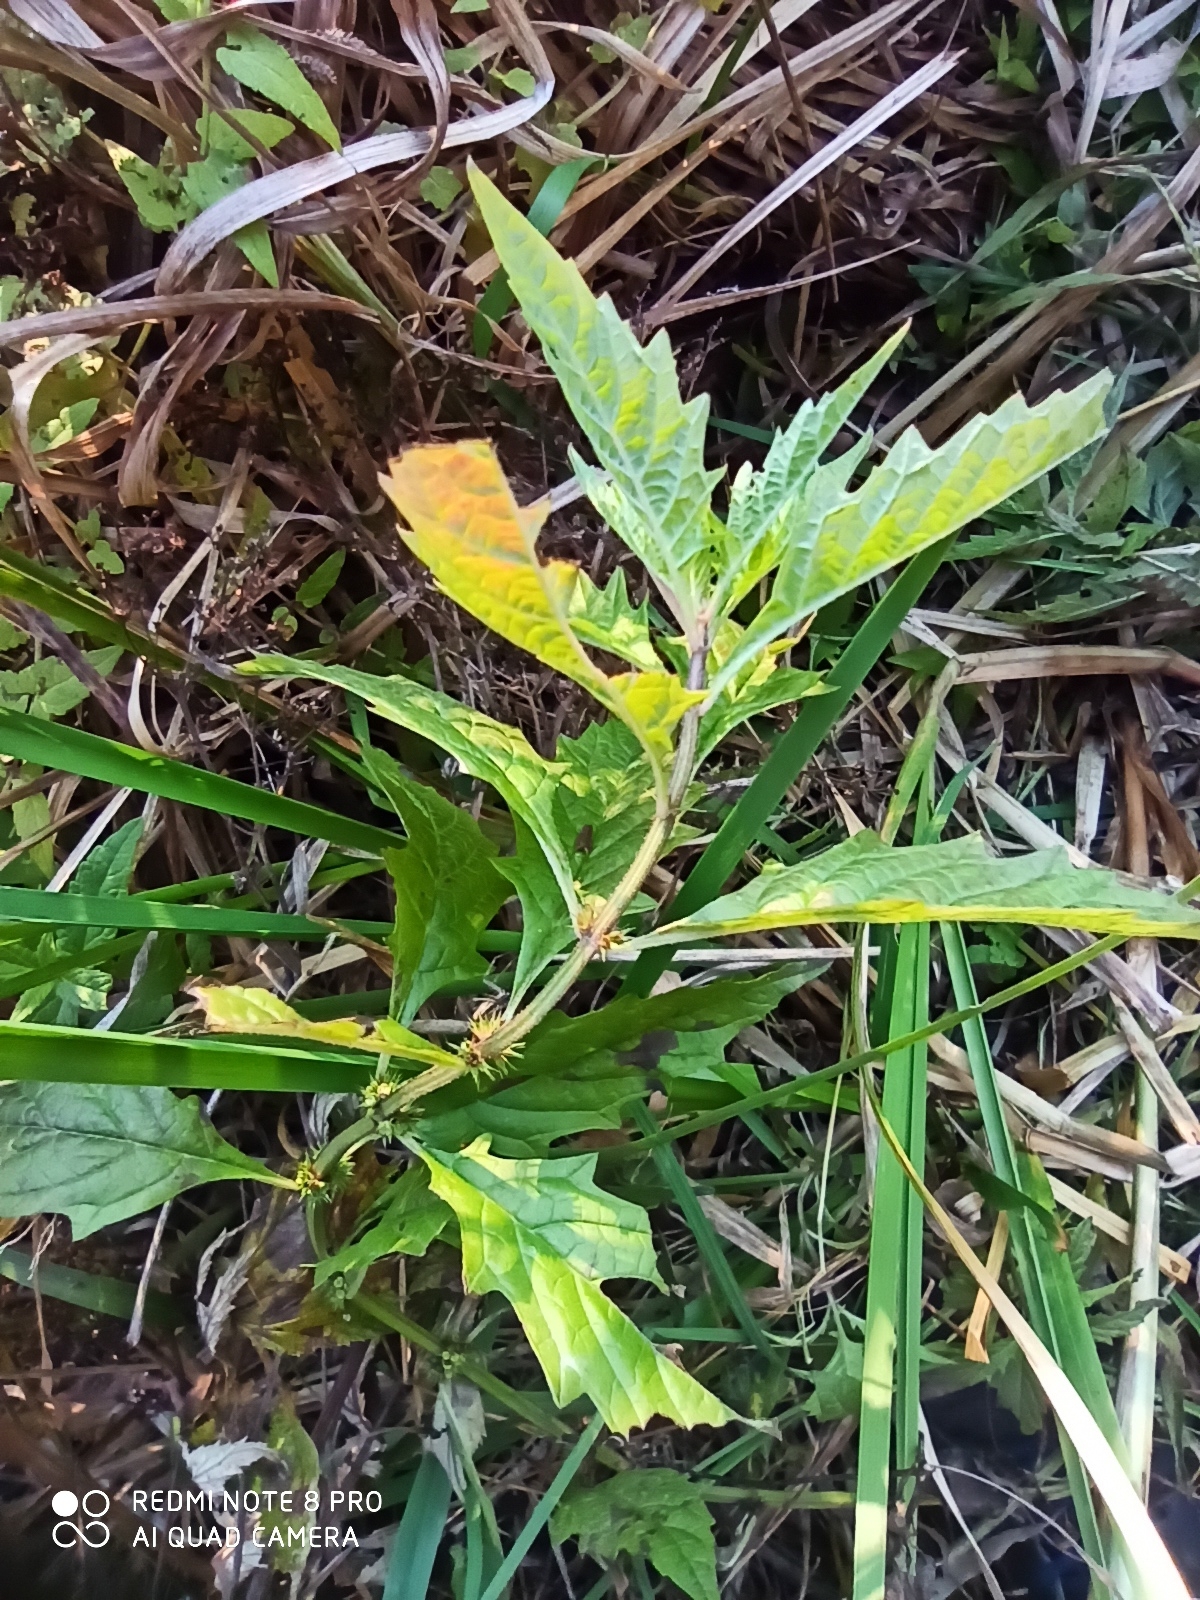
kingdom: Plantae
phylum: Tracheophyta
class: Magnoliopsida
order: Lamiales
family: Lamiaceae
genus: Lycopus
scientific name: Lycopus europaeus
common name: European bugleweed
